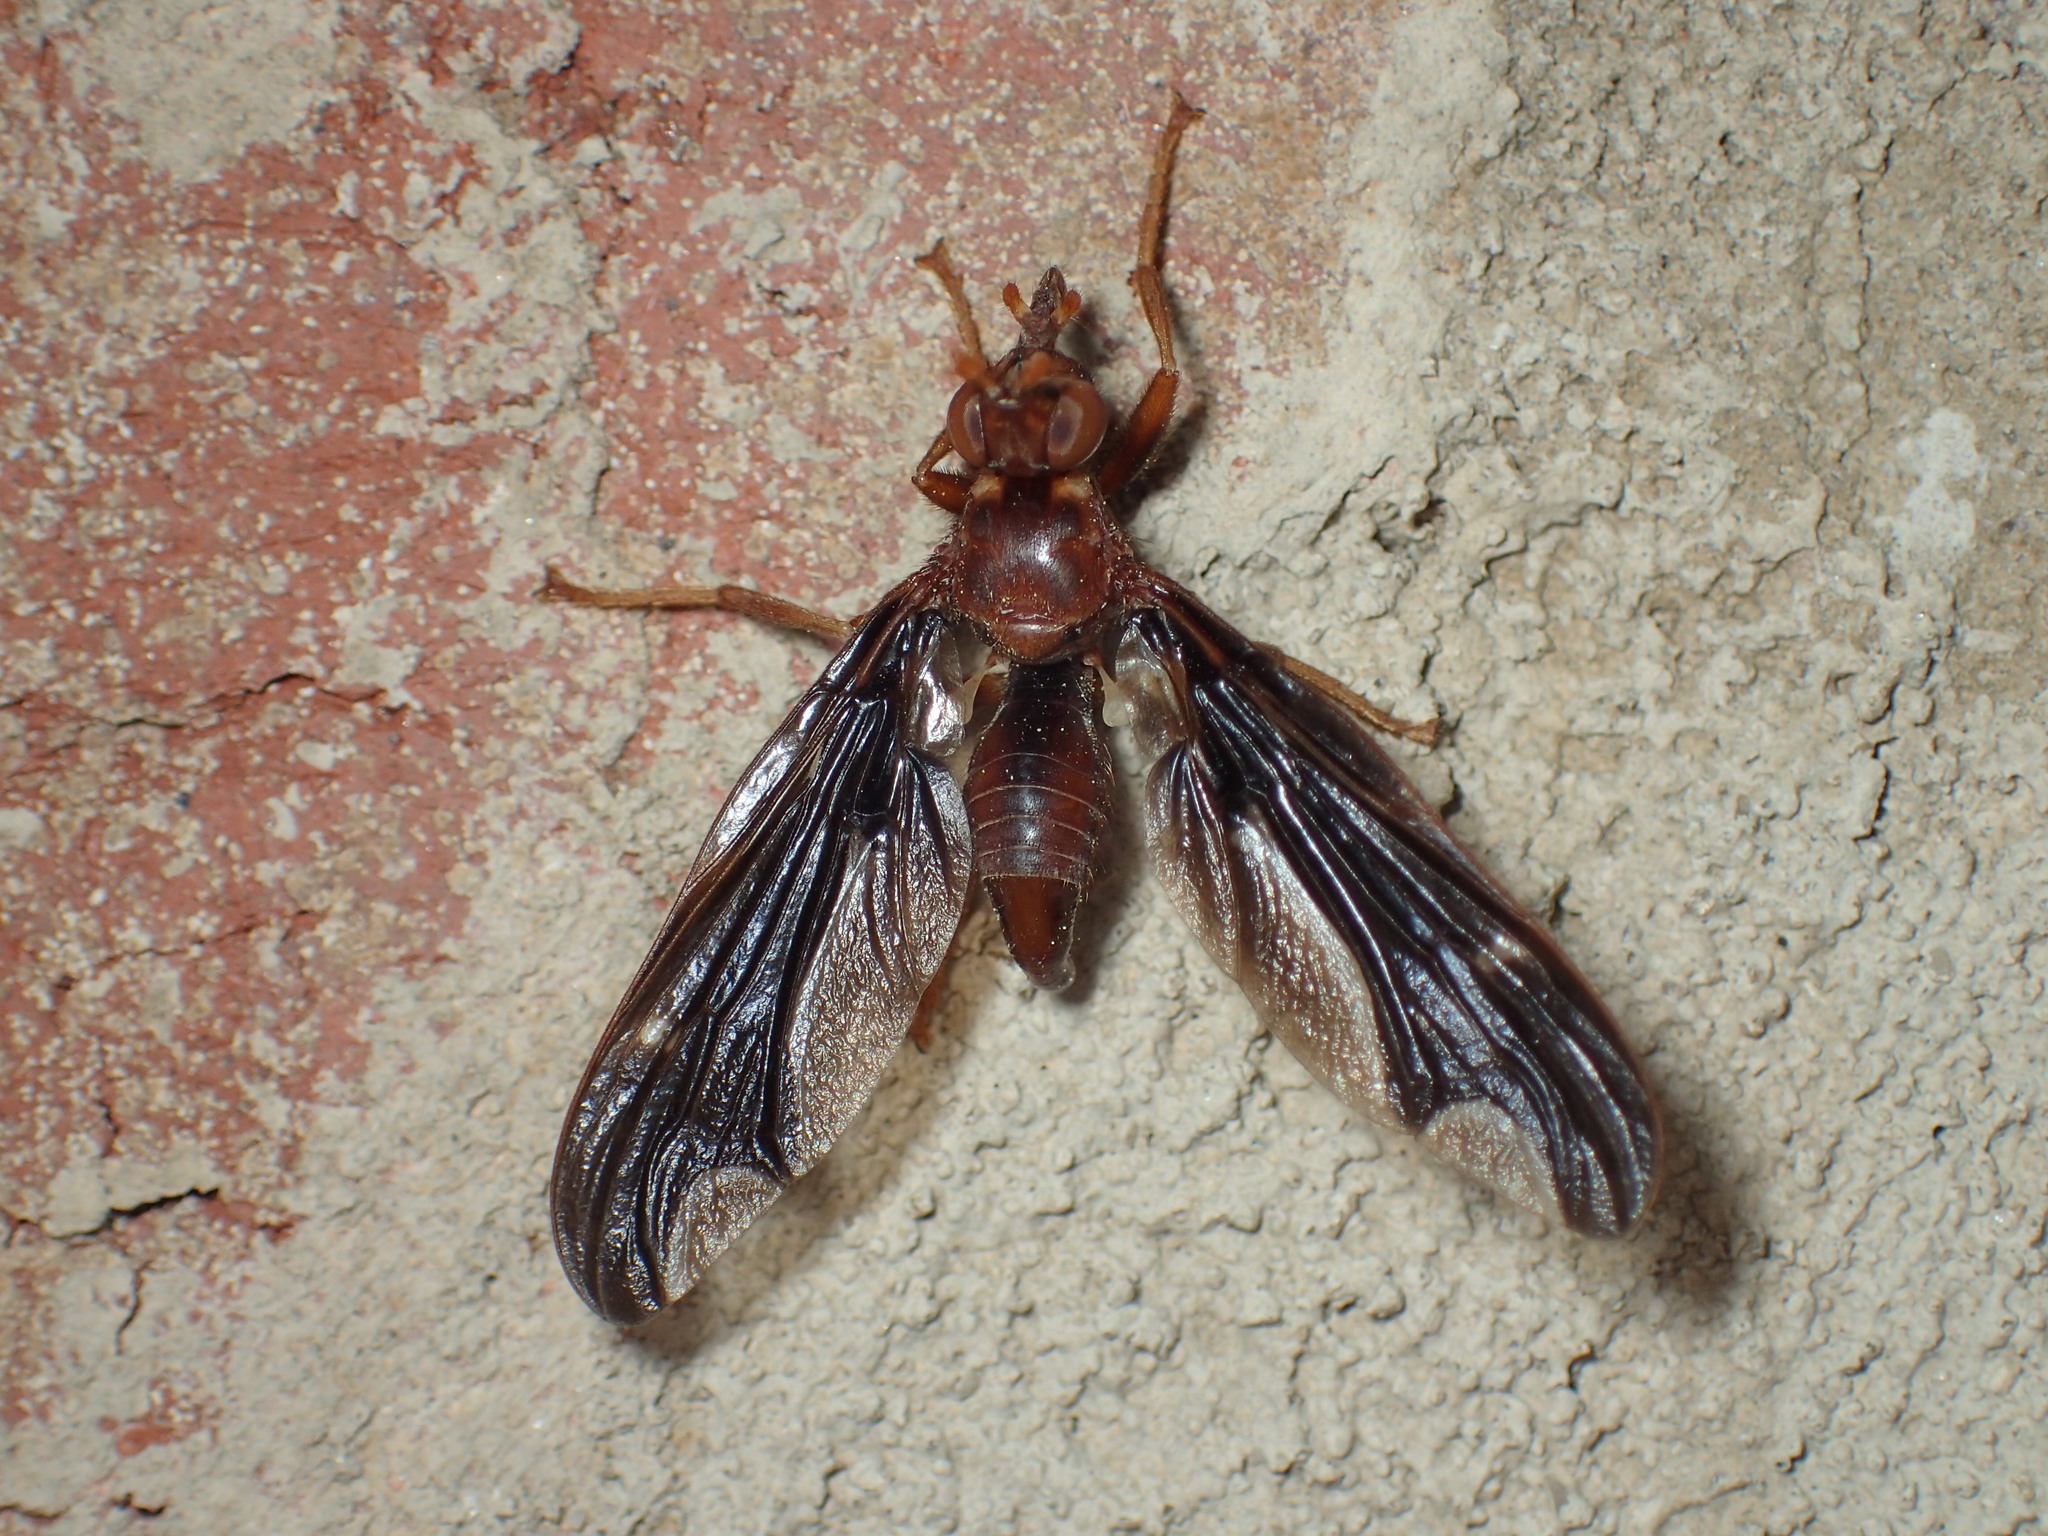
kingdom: Animalia
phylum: Arthropoda
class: Insecta
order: Diptera
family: Pyrgotidae
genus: Pyrgota
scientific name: Pyrgota undata
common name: Waved light fly
